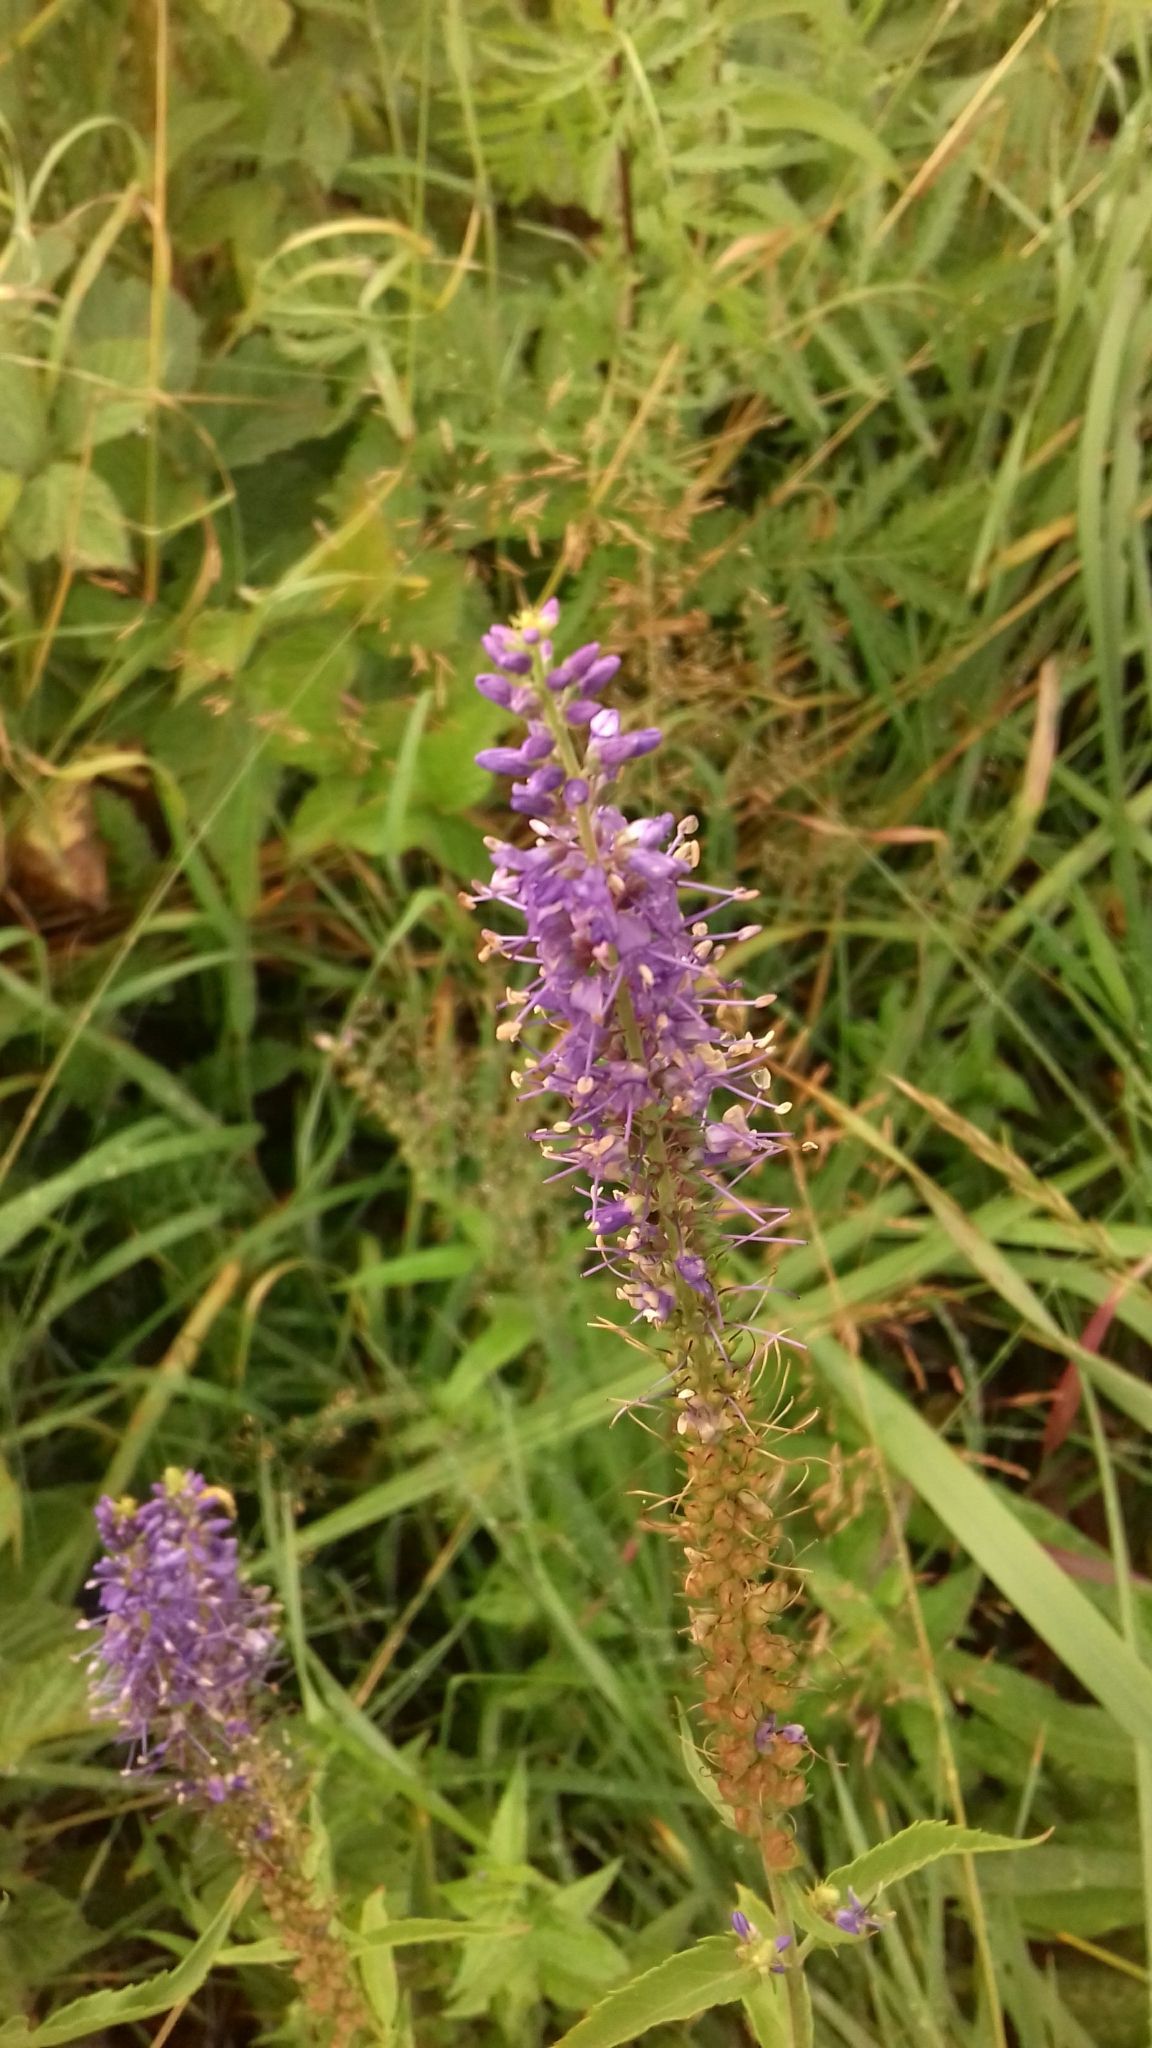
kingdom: Plantae
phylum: Tracheophyta
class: Magnoliopsida
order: Lamiales
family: Plantaginaceae
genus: Veronica
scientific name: Veronica longifolia
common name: Garden speedwell
